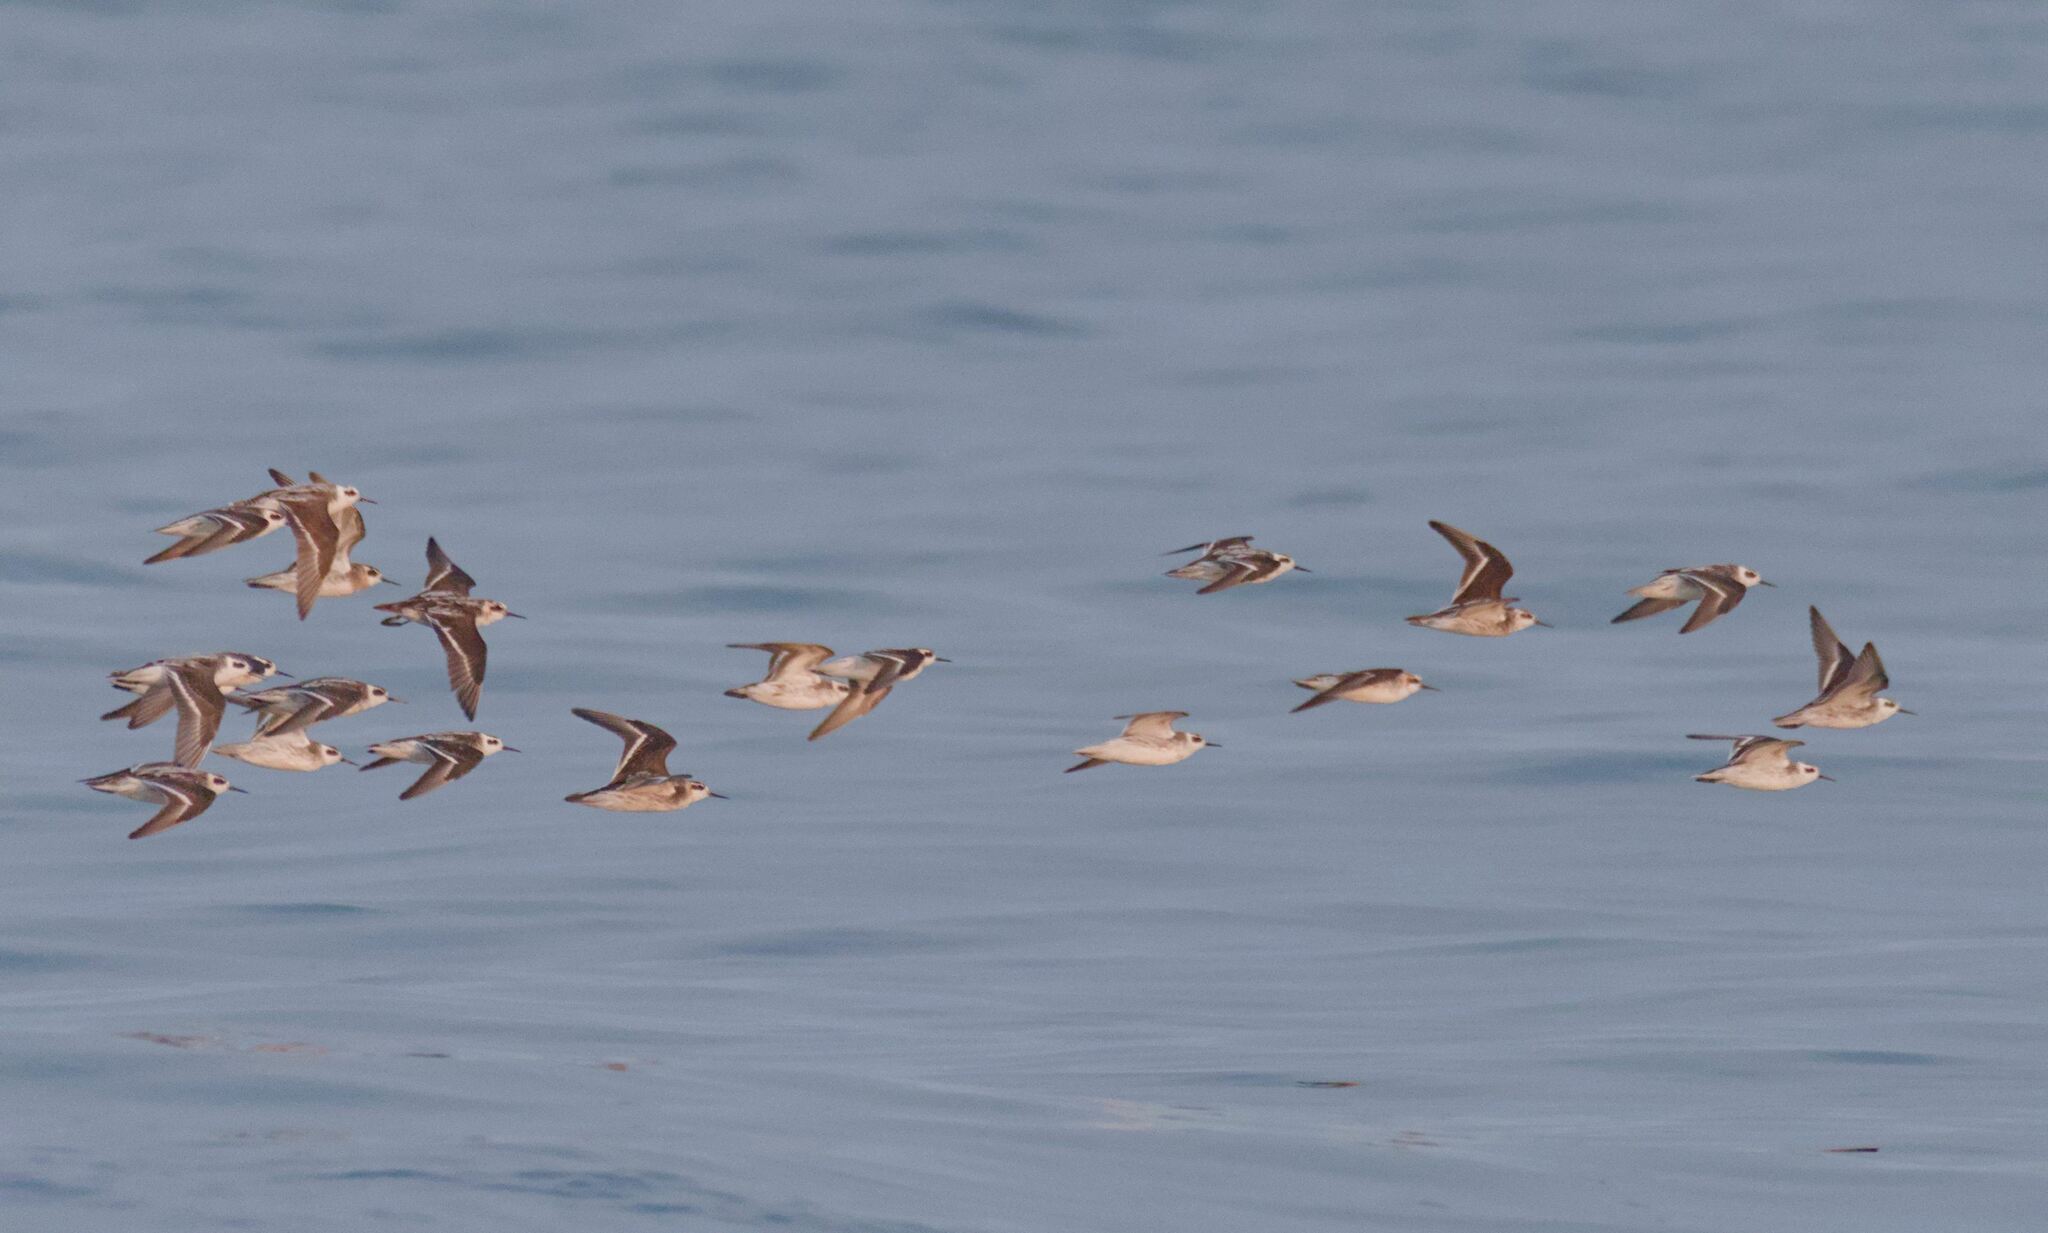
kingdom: Animalia
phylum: Chordata
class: Aves
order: Charadriiformes
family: Scolopacidae
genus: Phalaropus
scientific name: Phalaropus lobatus
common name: Red-necked phalarope
